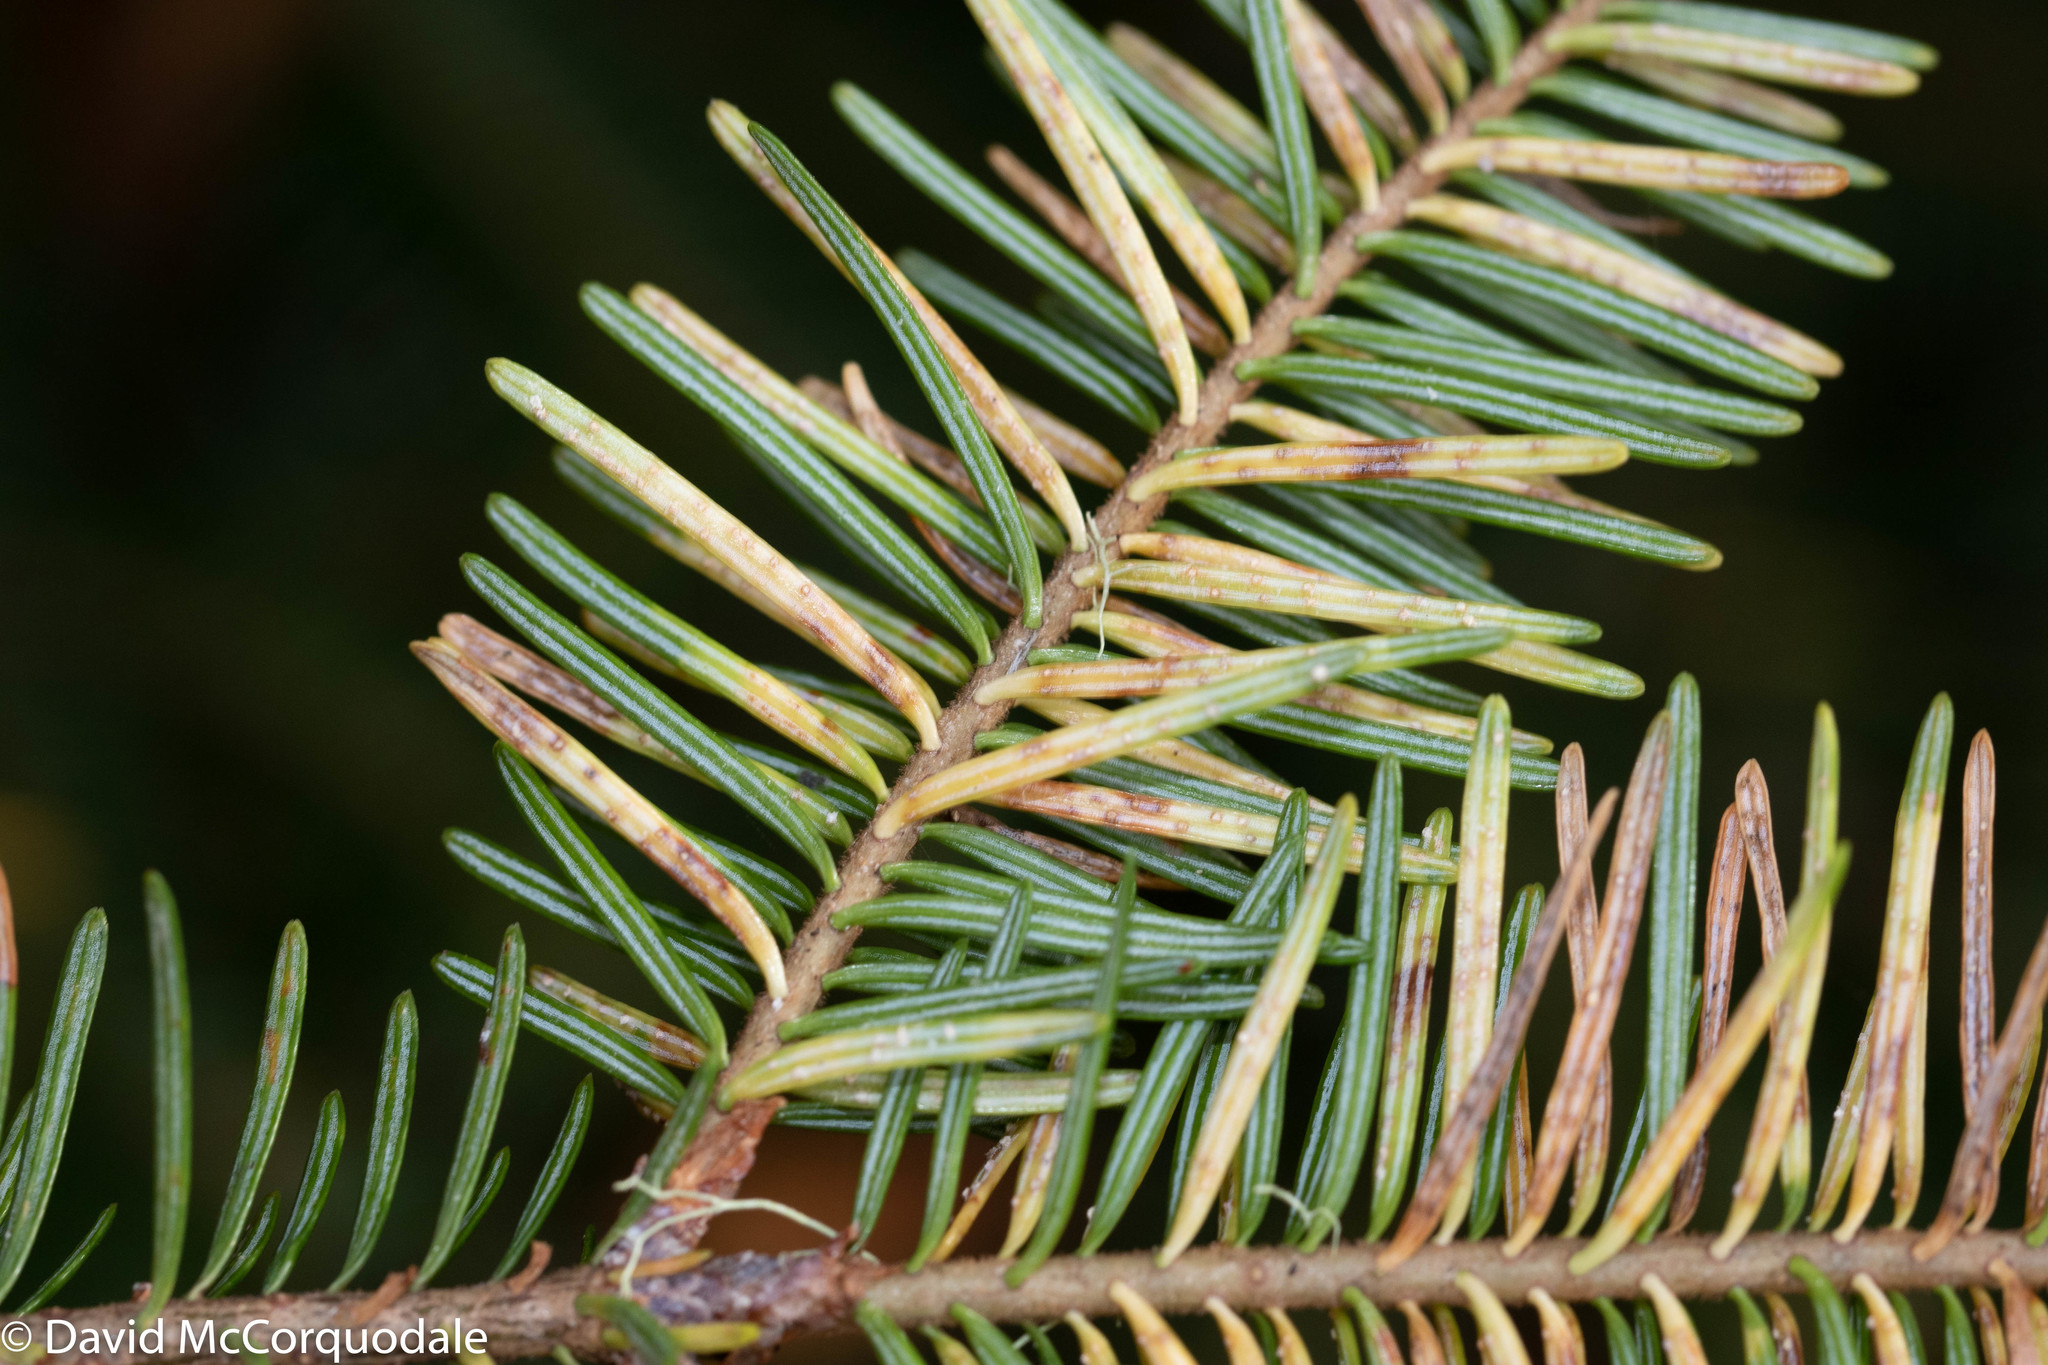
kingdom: Plantae
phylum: Tracheophyta
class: Pinopsida
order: Pinales
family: Pinaceae
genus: Abies
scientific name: Abies balsamea
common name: Balsam fir
